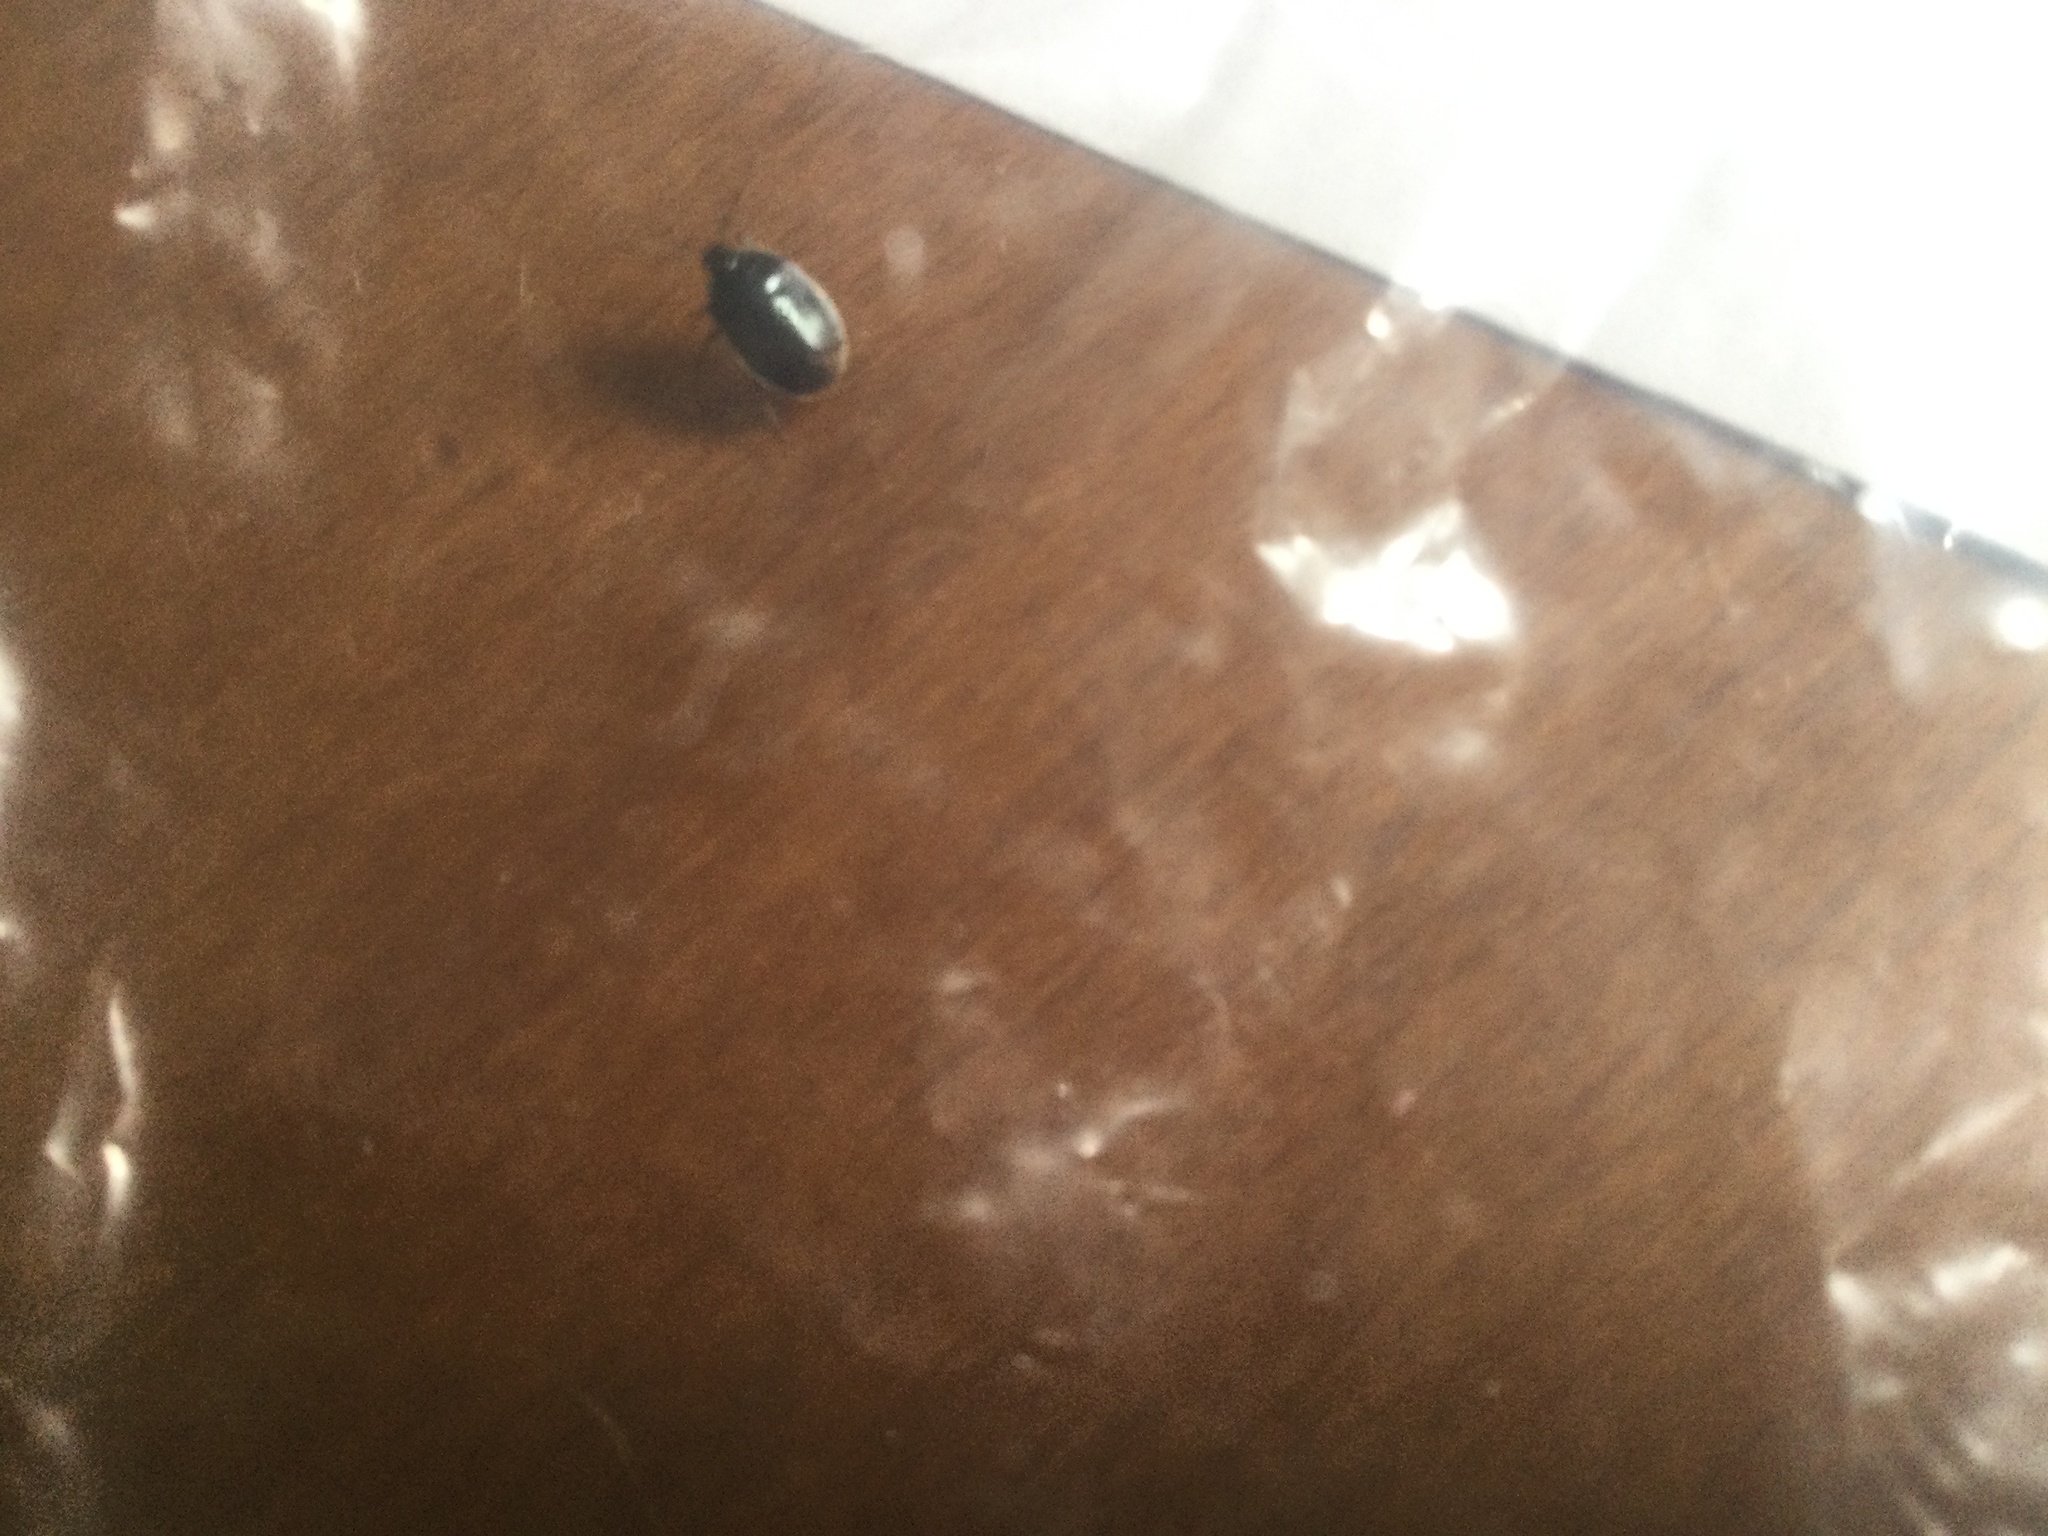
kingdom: Animalia
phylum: Arthropoda
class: Insecta
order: Hemiptera
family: Cydnidae
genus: Sehirus
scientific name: Sehirus cinctus
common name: White-margined burrower bug
